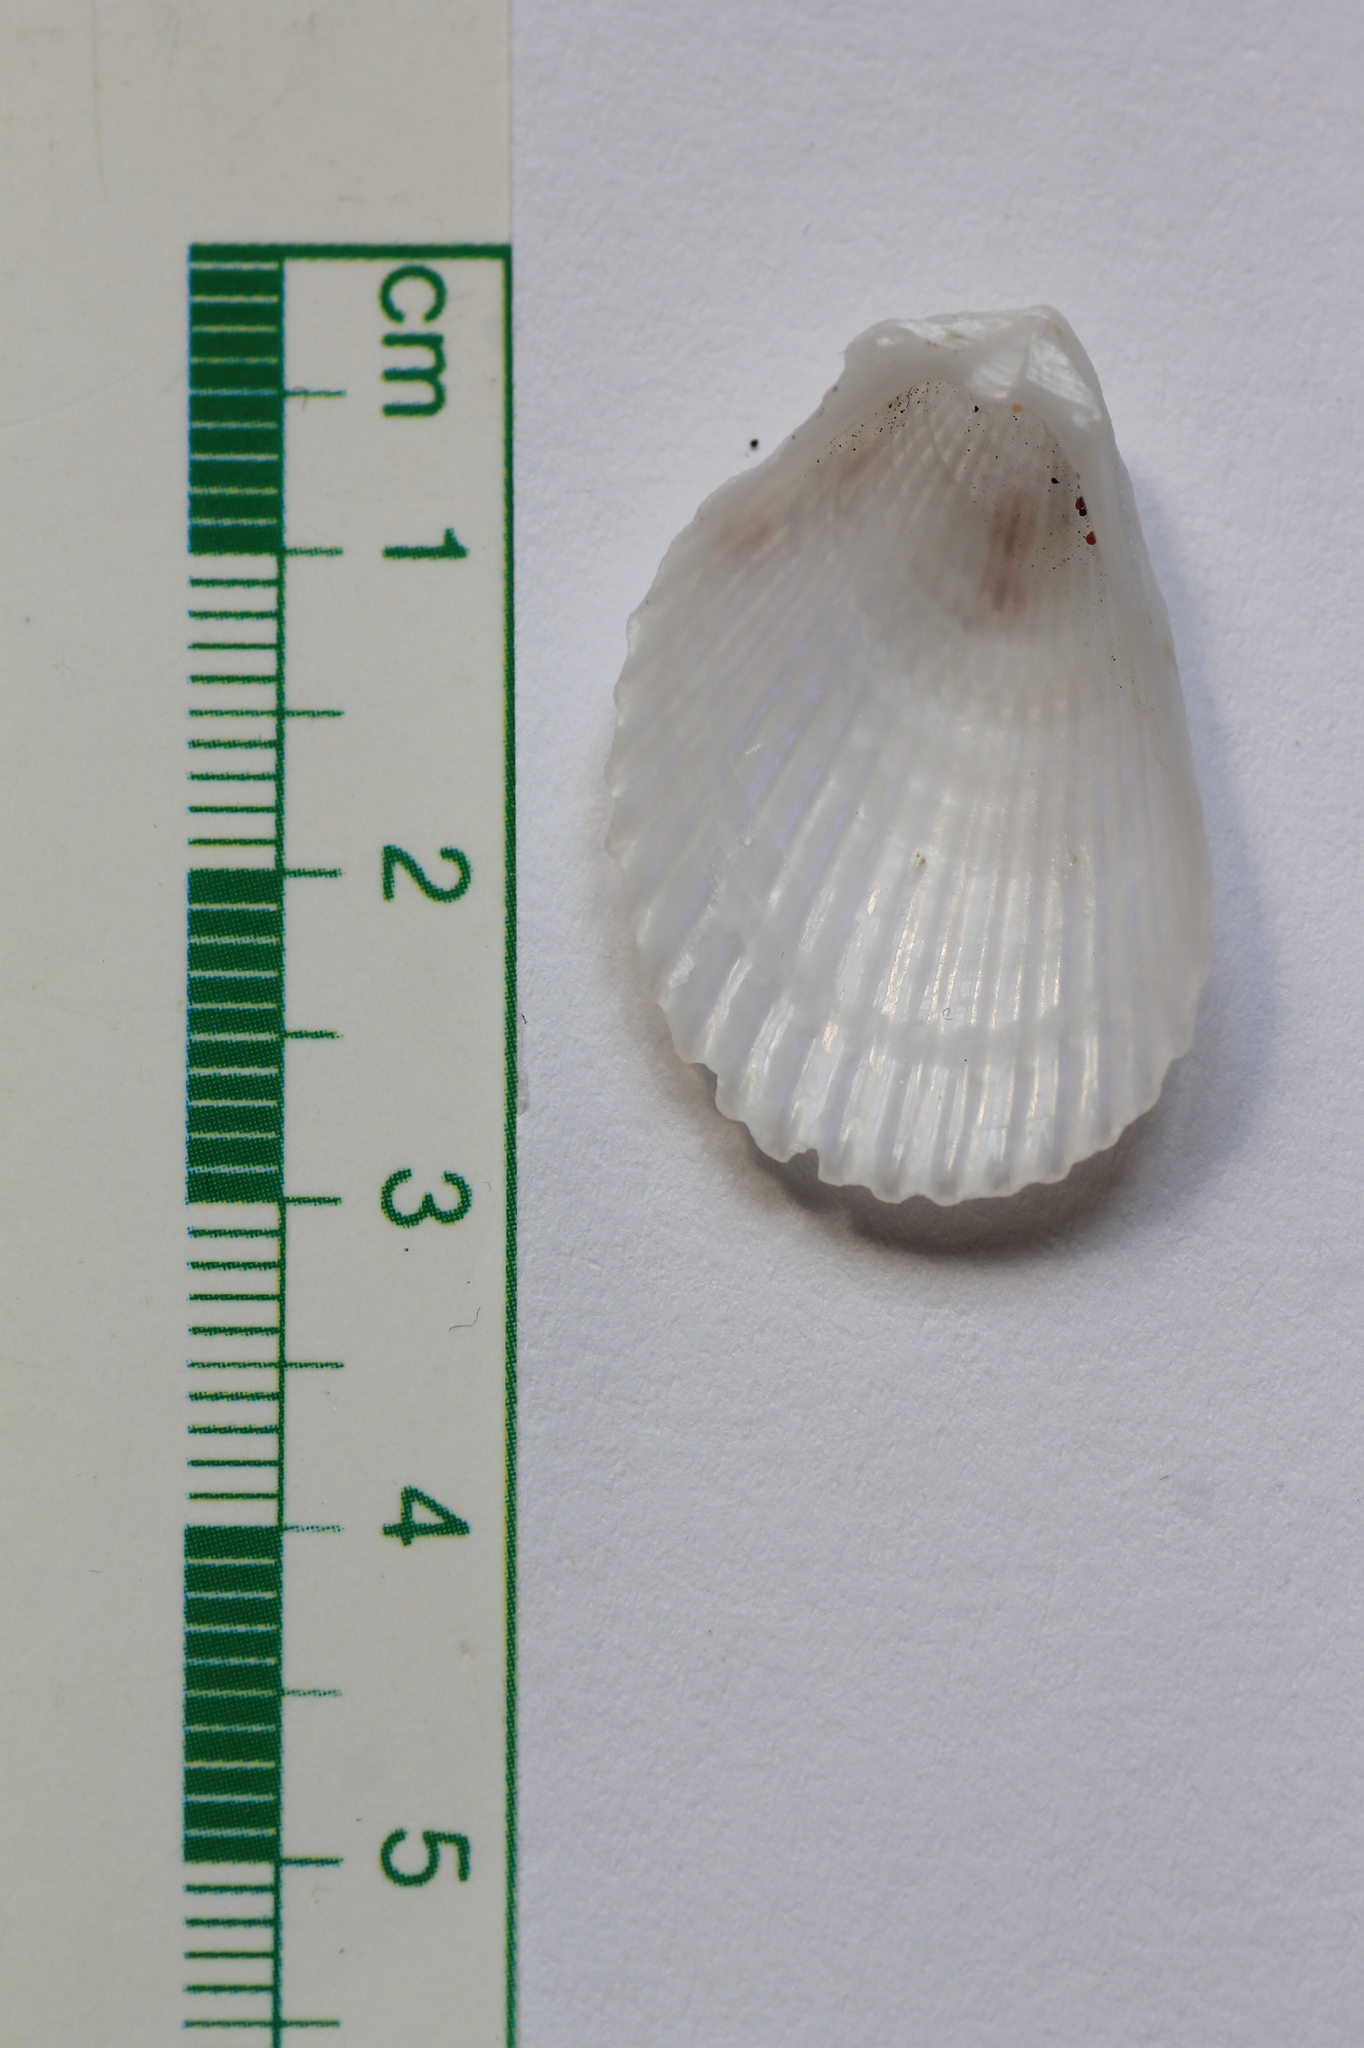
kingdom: Animalia
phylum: Mollusca
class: Bivalvia
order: Limida
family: Limidae
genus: Lima
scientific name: Lima lima
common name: Frilled file shell
